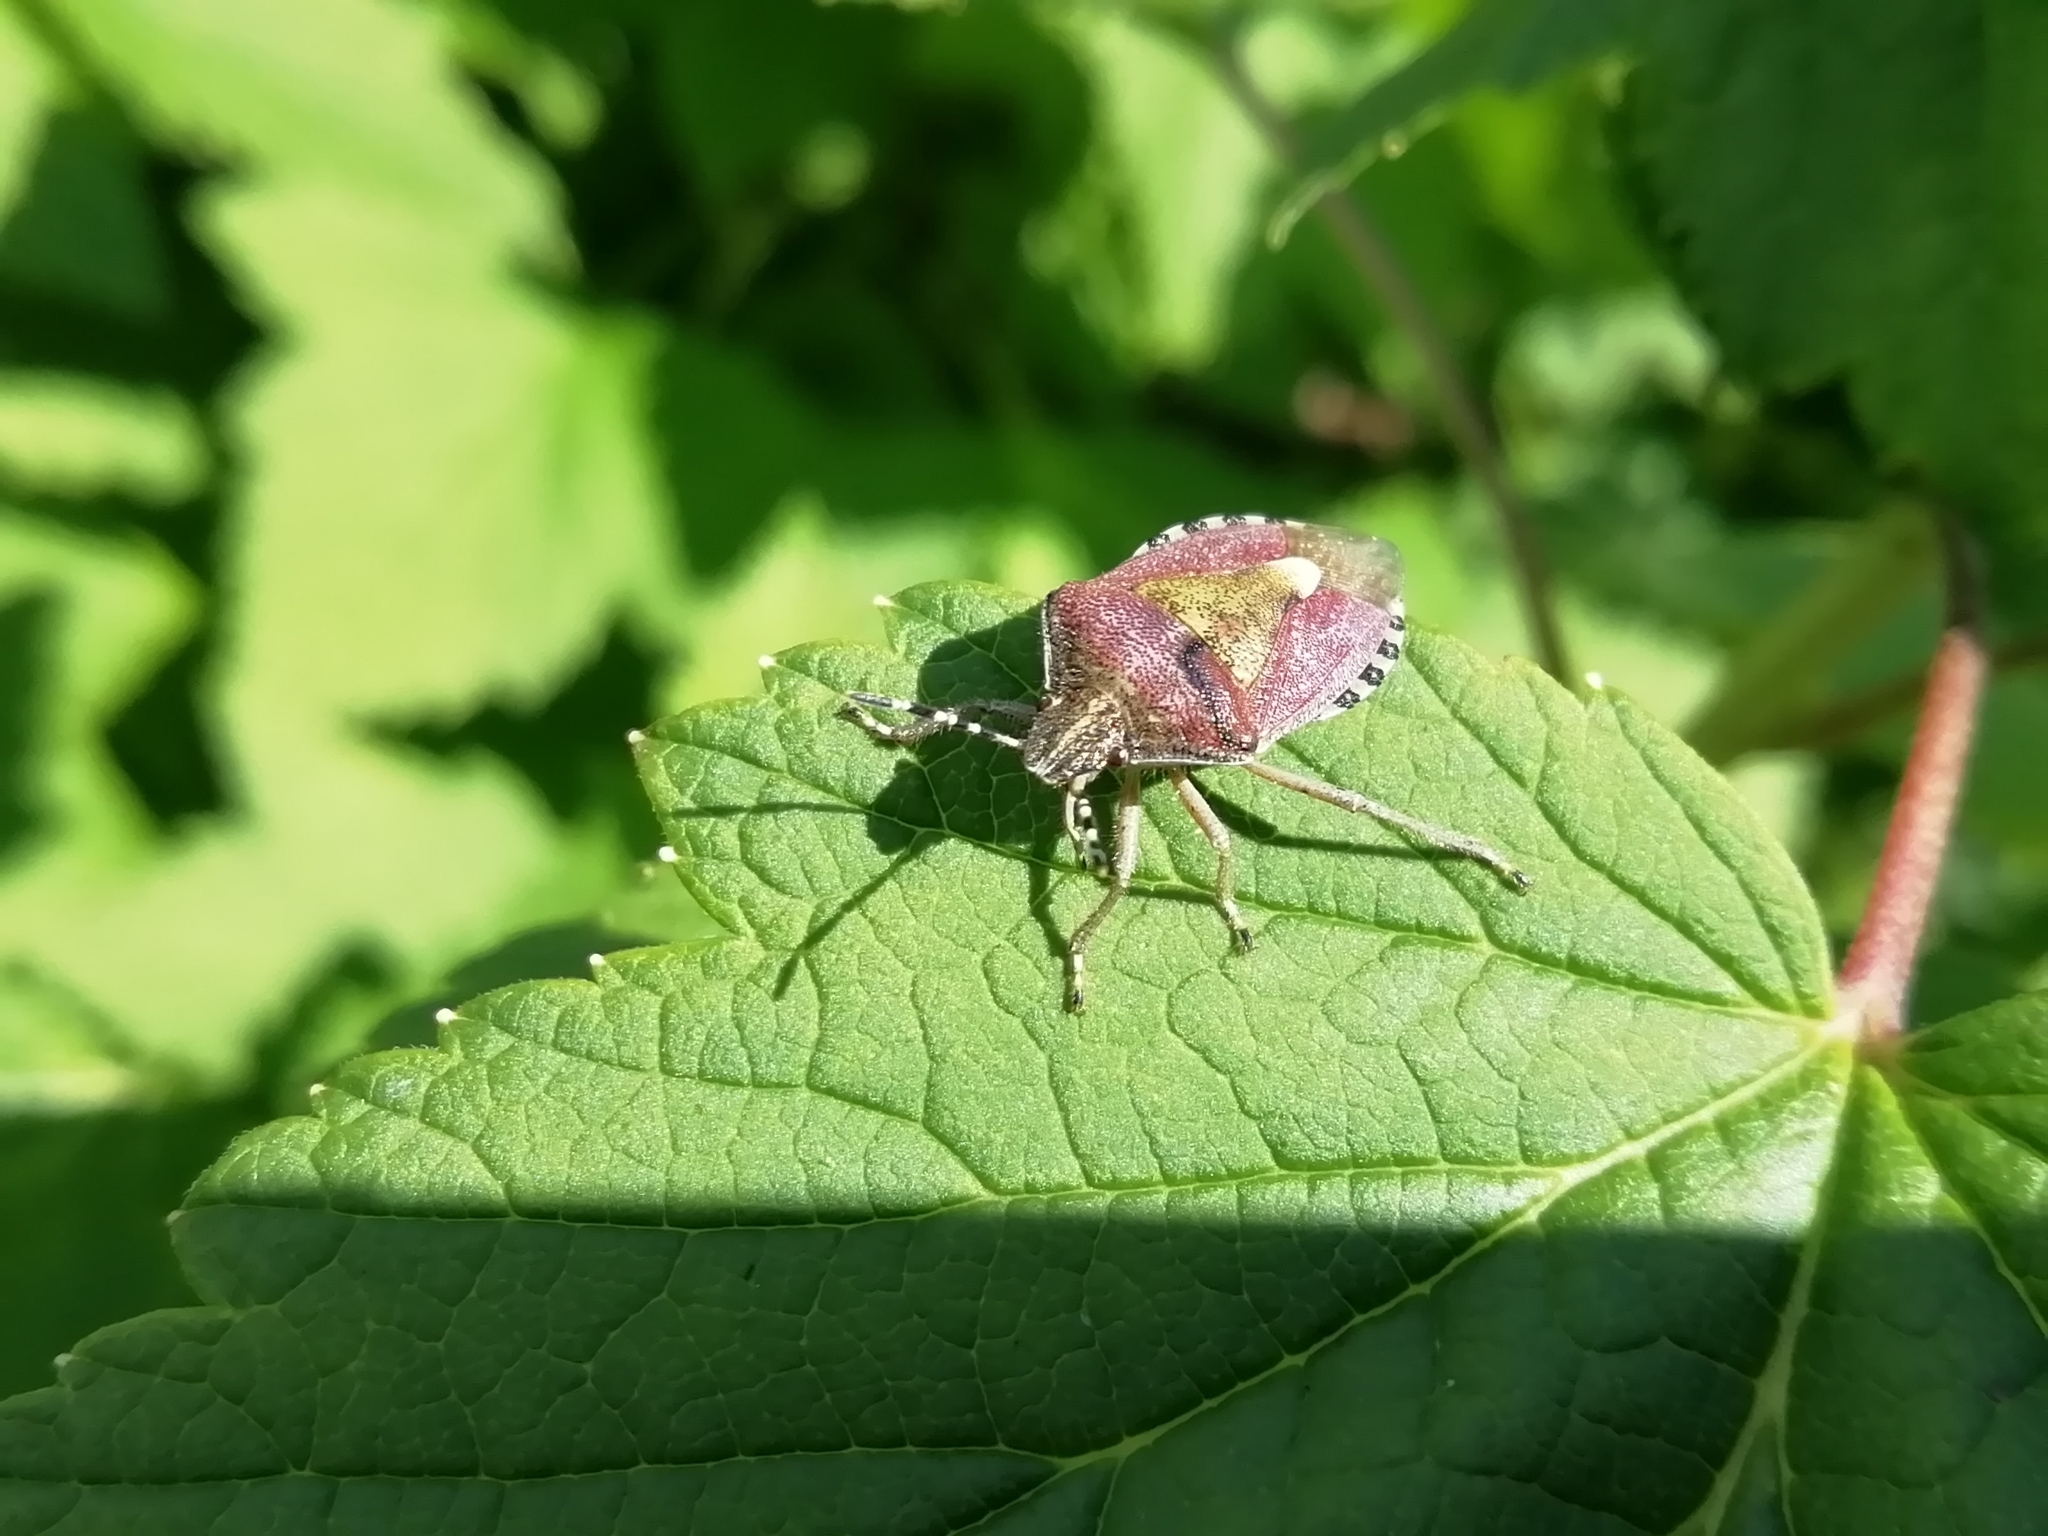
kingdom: Animalia
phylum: Arthropoda
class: Insecta
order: Hemiptera
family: Pentatomidae
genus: Dolycoris
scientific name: Dolycoris baccarum
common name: Sloe bug
